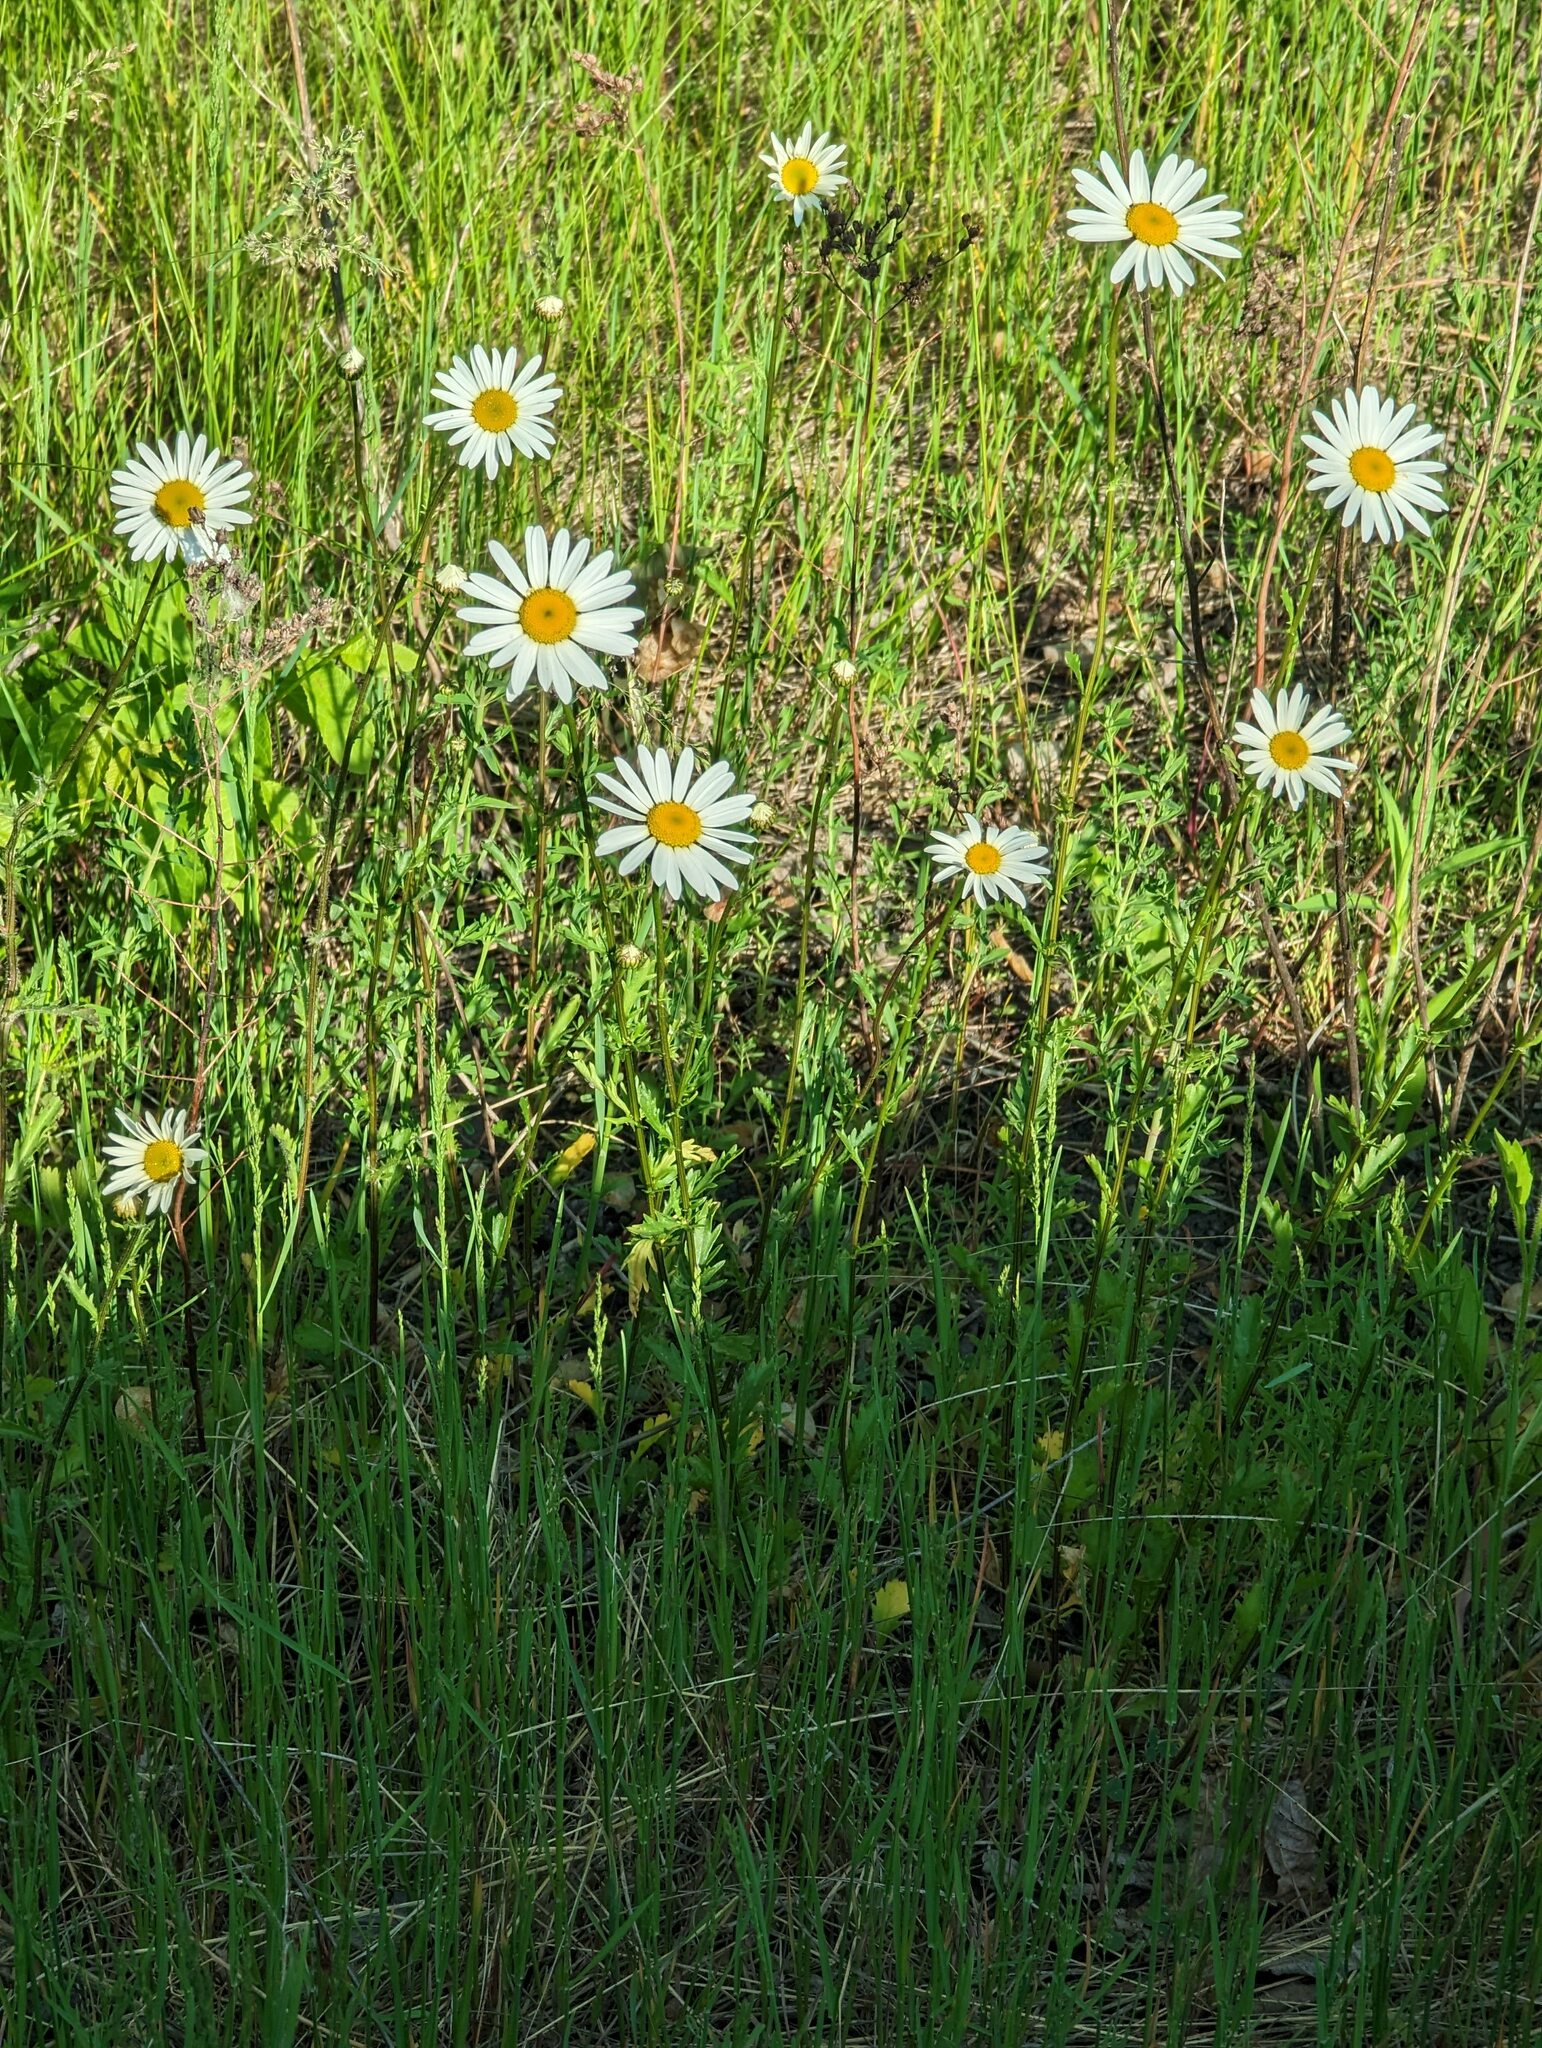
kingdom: Plantae
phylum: Tracheophyta
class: Magnoliopsida
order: Asterales
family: Asteraceae
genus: Leucanthemum
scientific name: Leucanthemum vulgare
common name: Oxeye daisy
